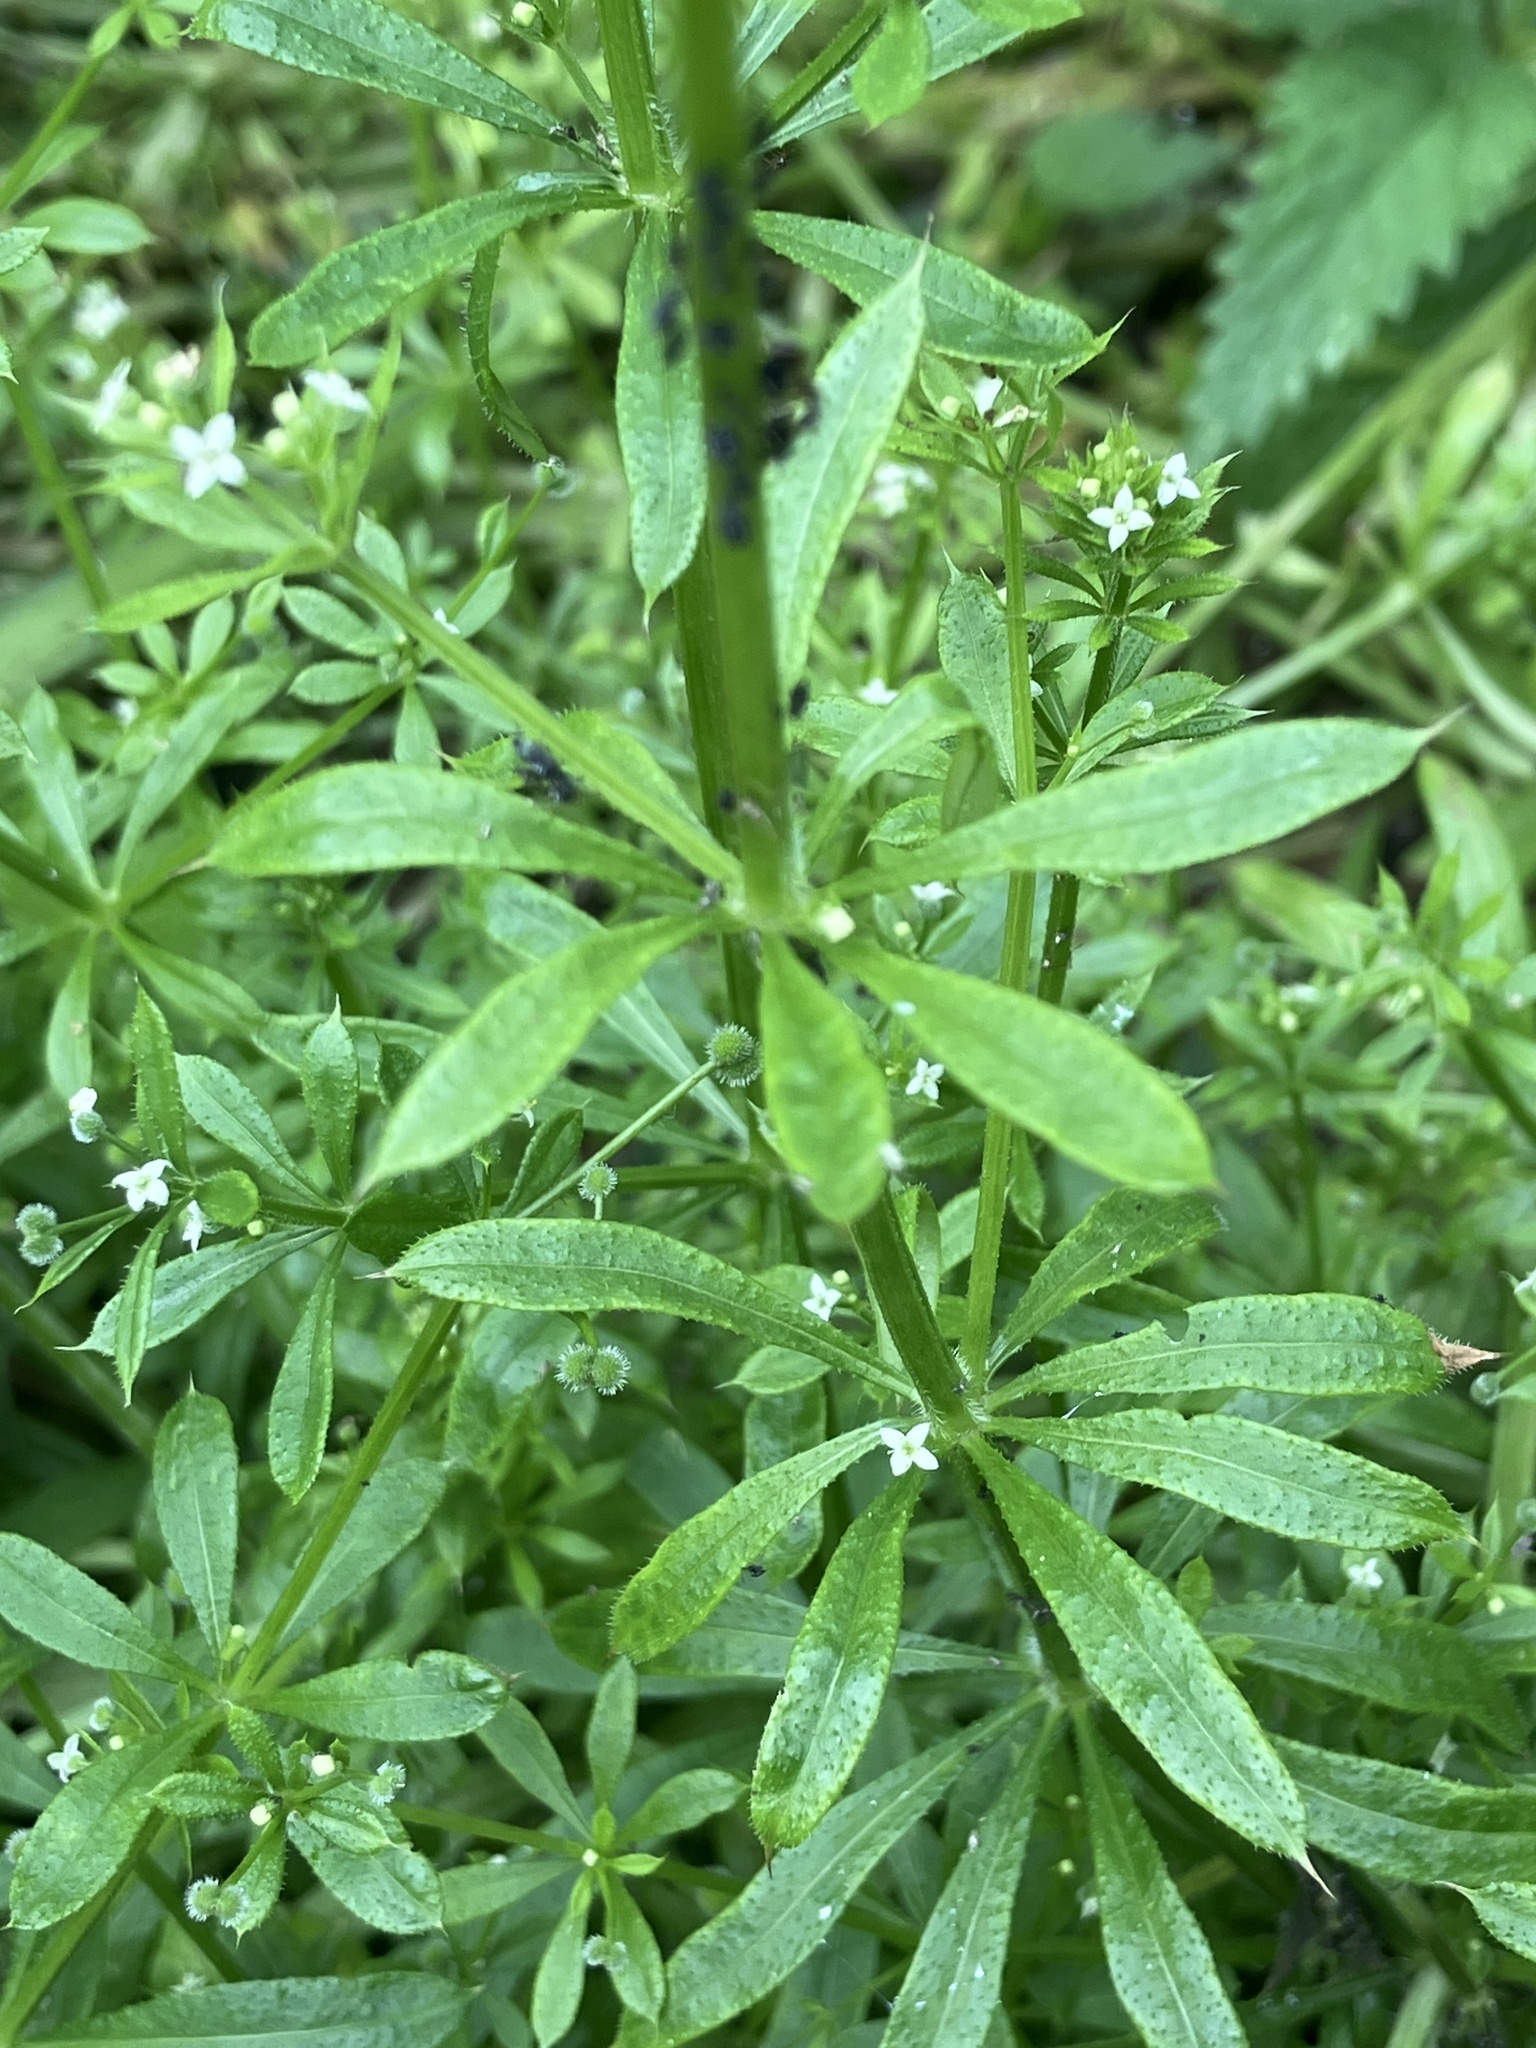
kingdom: Plantae
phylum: Tracheophyta
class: Magnoliopsida
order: Gentianales
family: Rubiaceae
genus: Galium
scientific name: Galium aparine
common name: Cleavers
